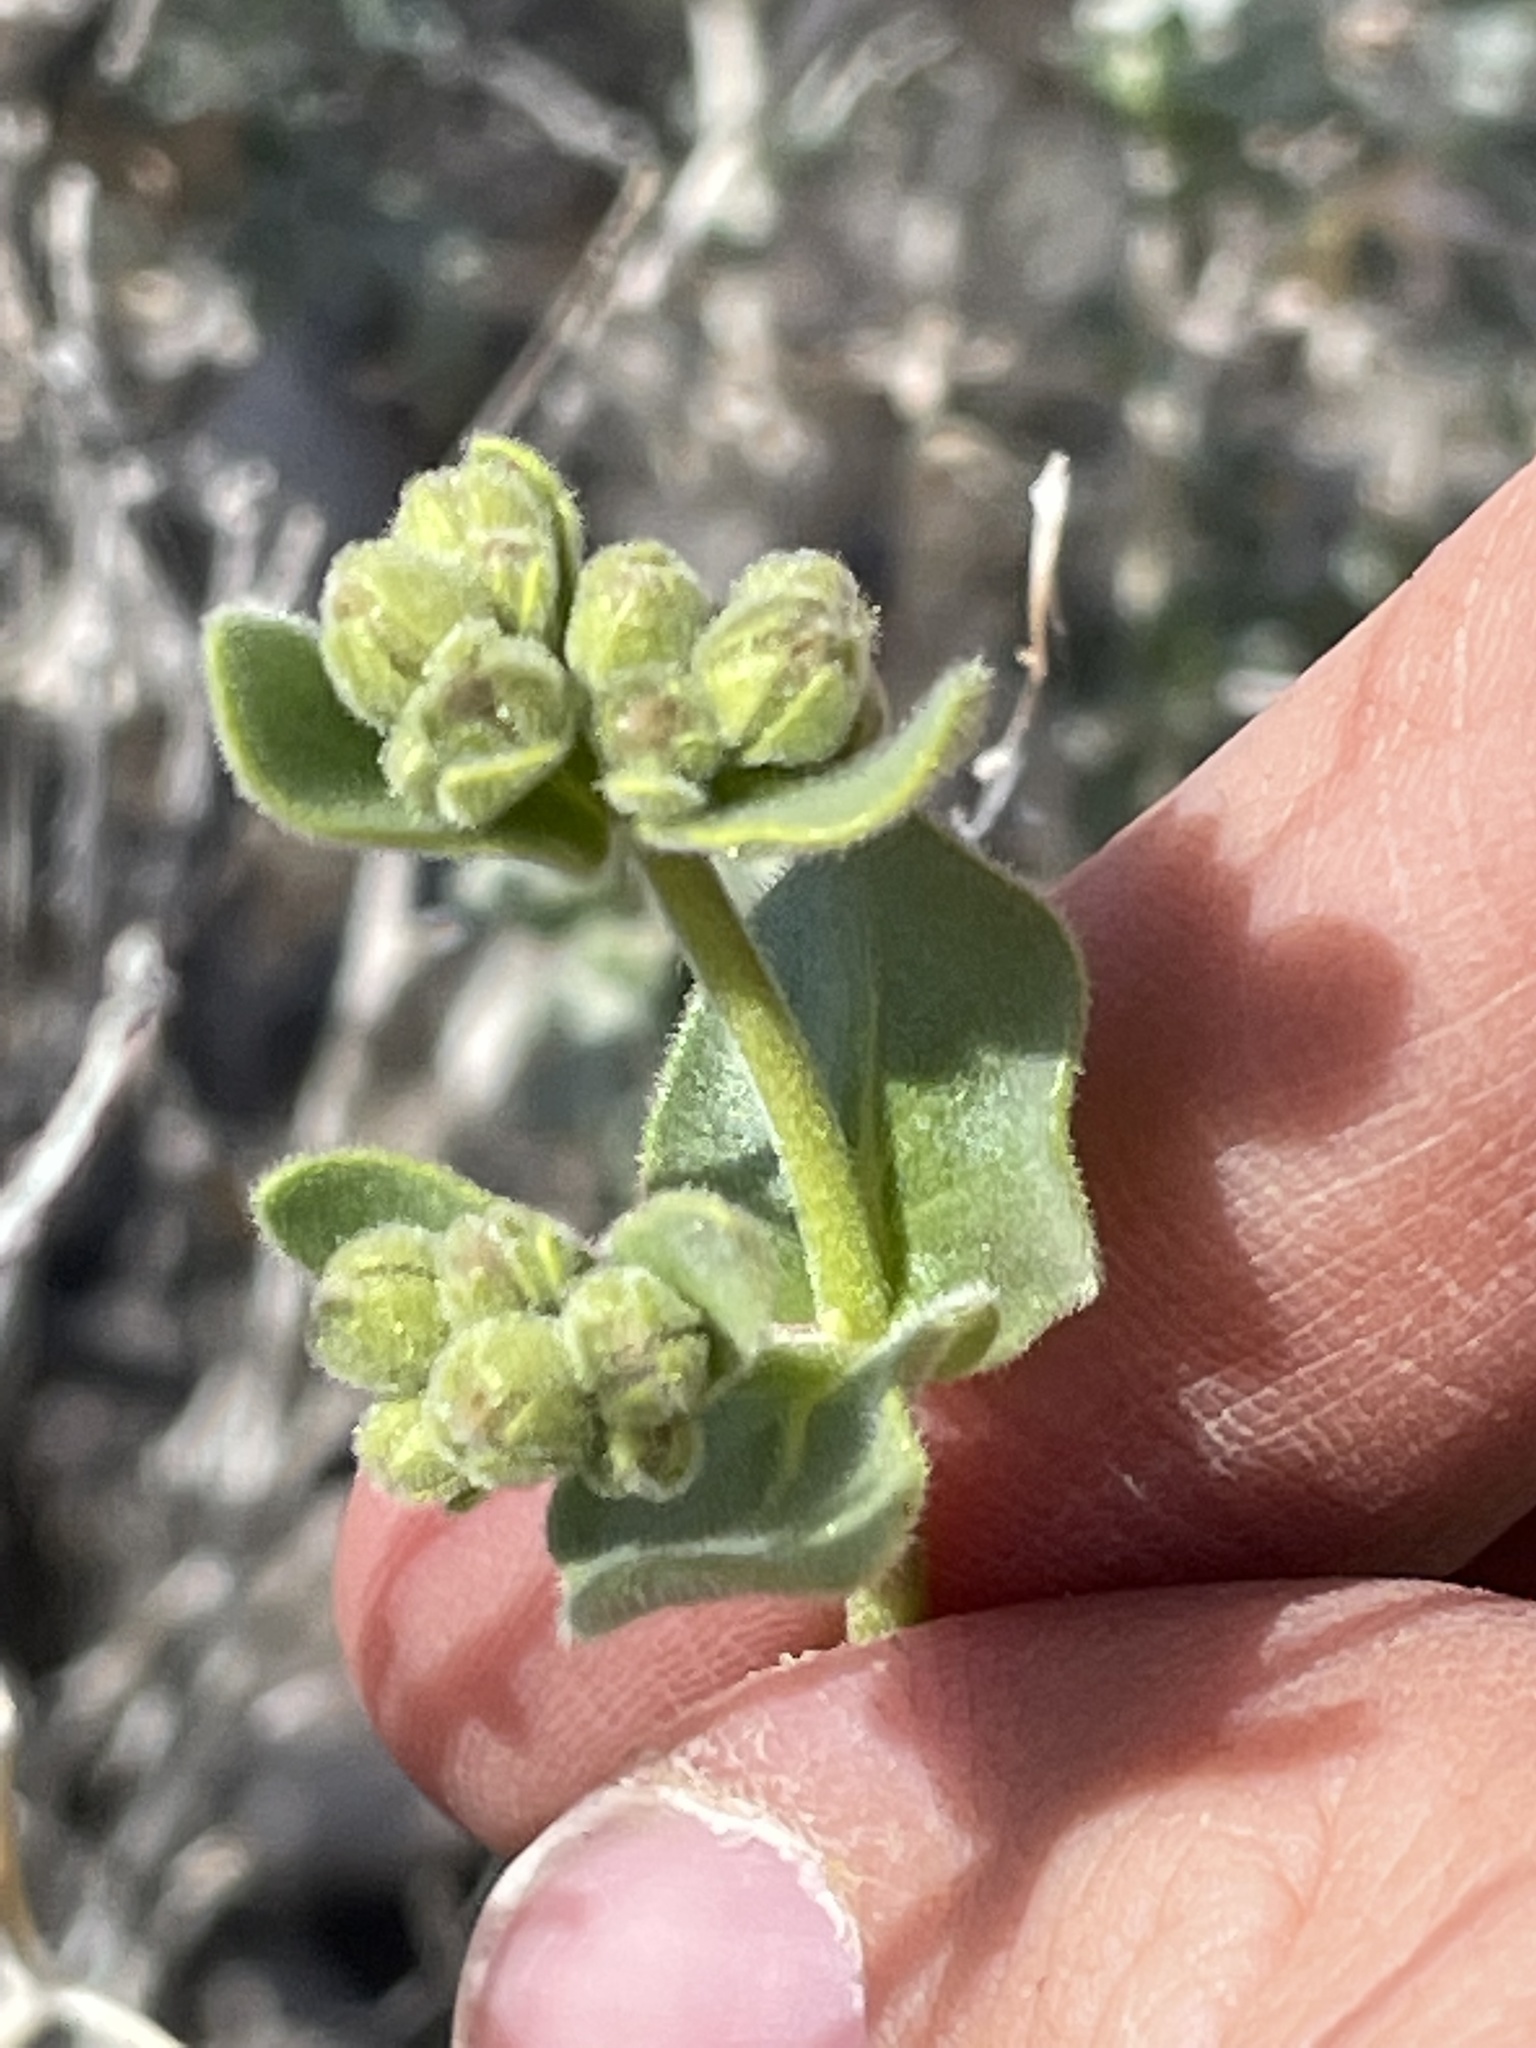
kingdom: Plantae
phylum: Tracheophyta
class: Magnoliopsida
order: Caryophyllales
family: Nyctaginaceae
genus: Mirabilis
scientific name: Mirabilis laevis
